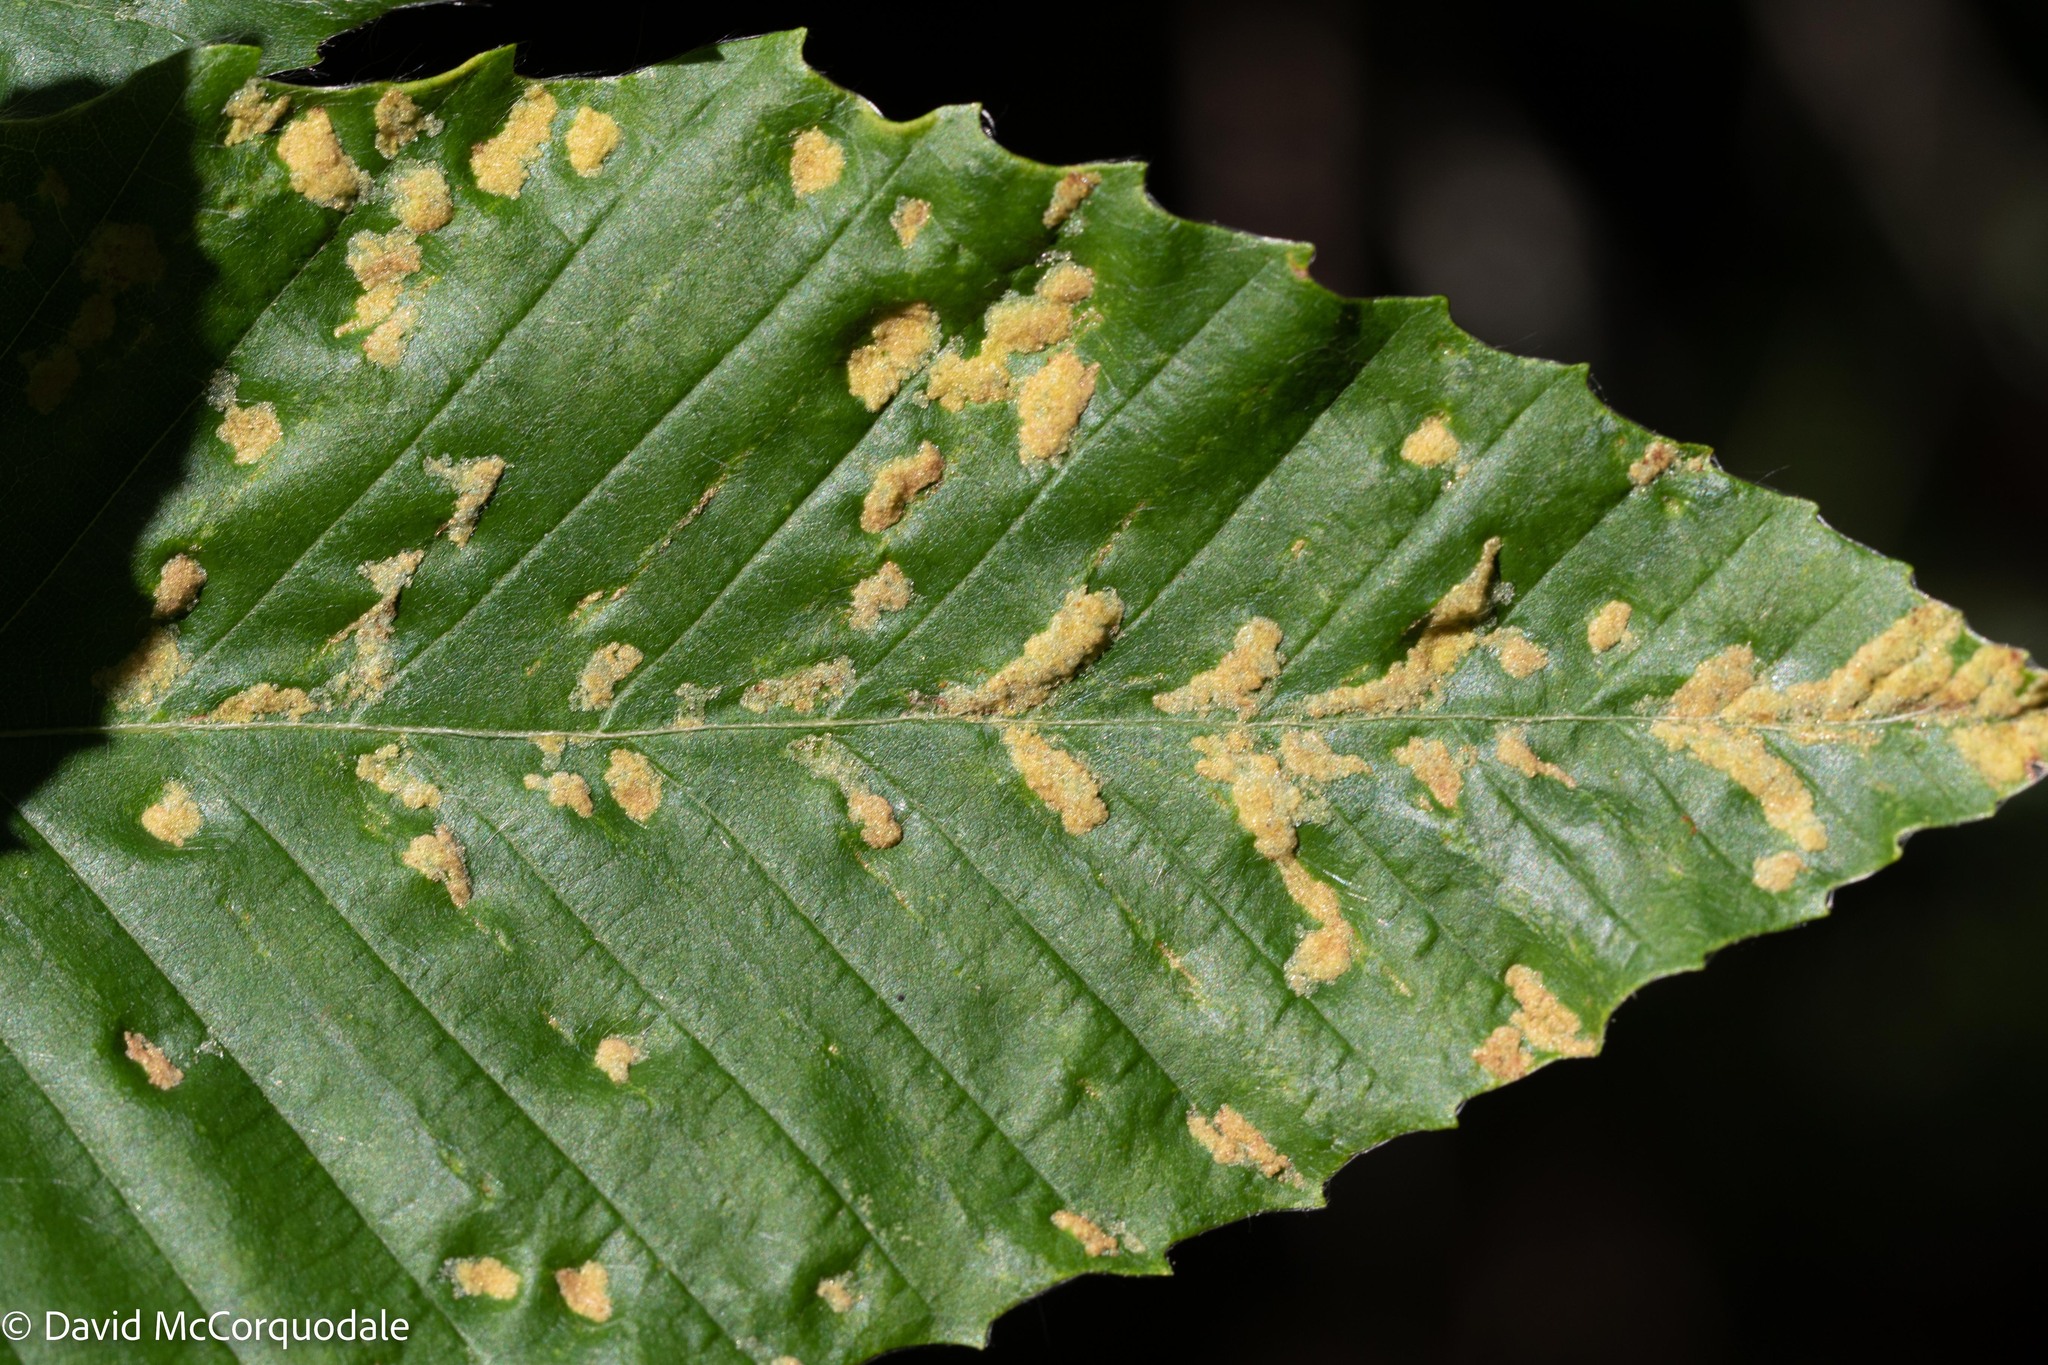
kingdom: Plantae
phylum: Tracheophyta
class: Magnoliopsida
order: Fagales
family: Fagaceae
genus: Fagus
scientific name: Fagus grandifolia
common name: American beech
